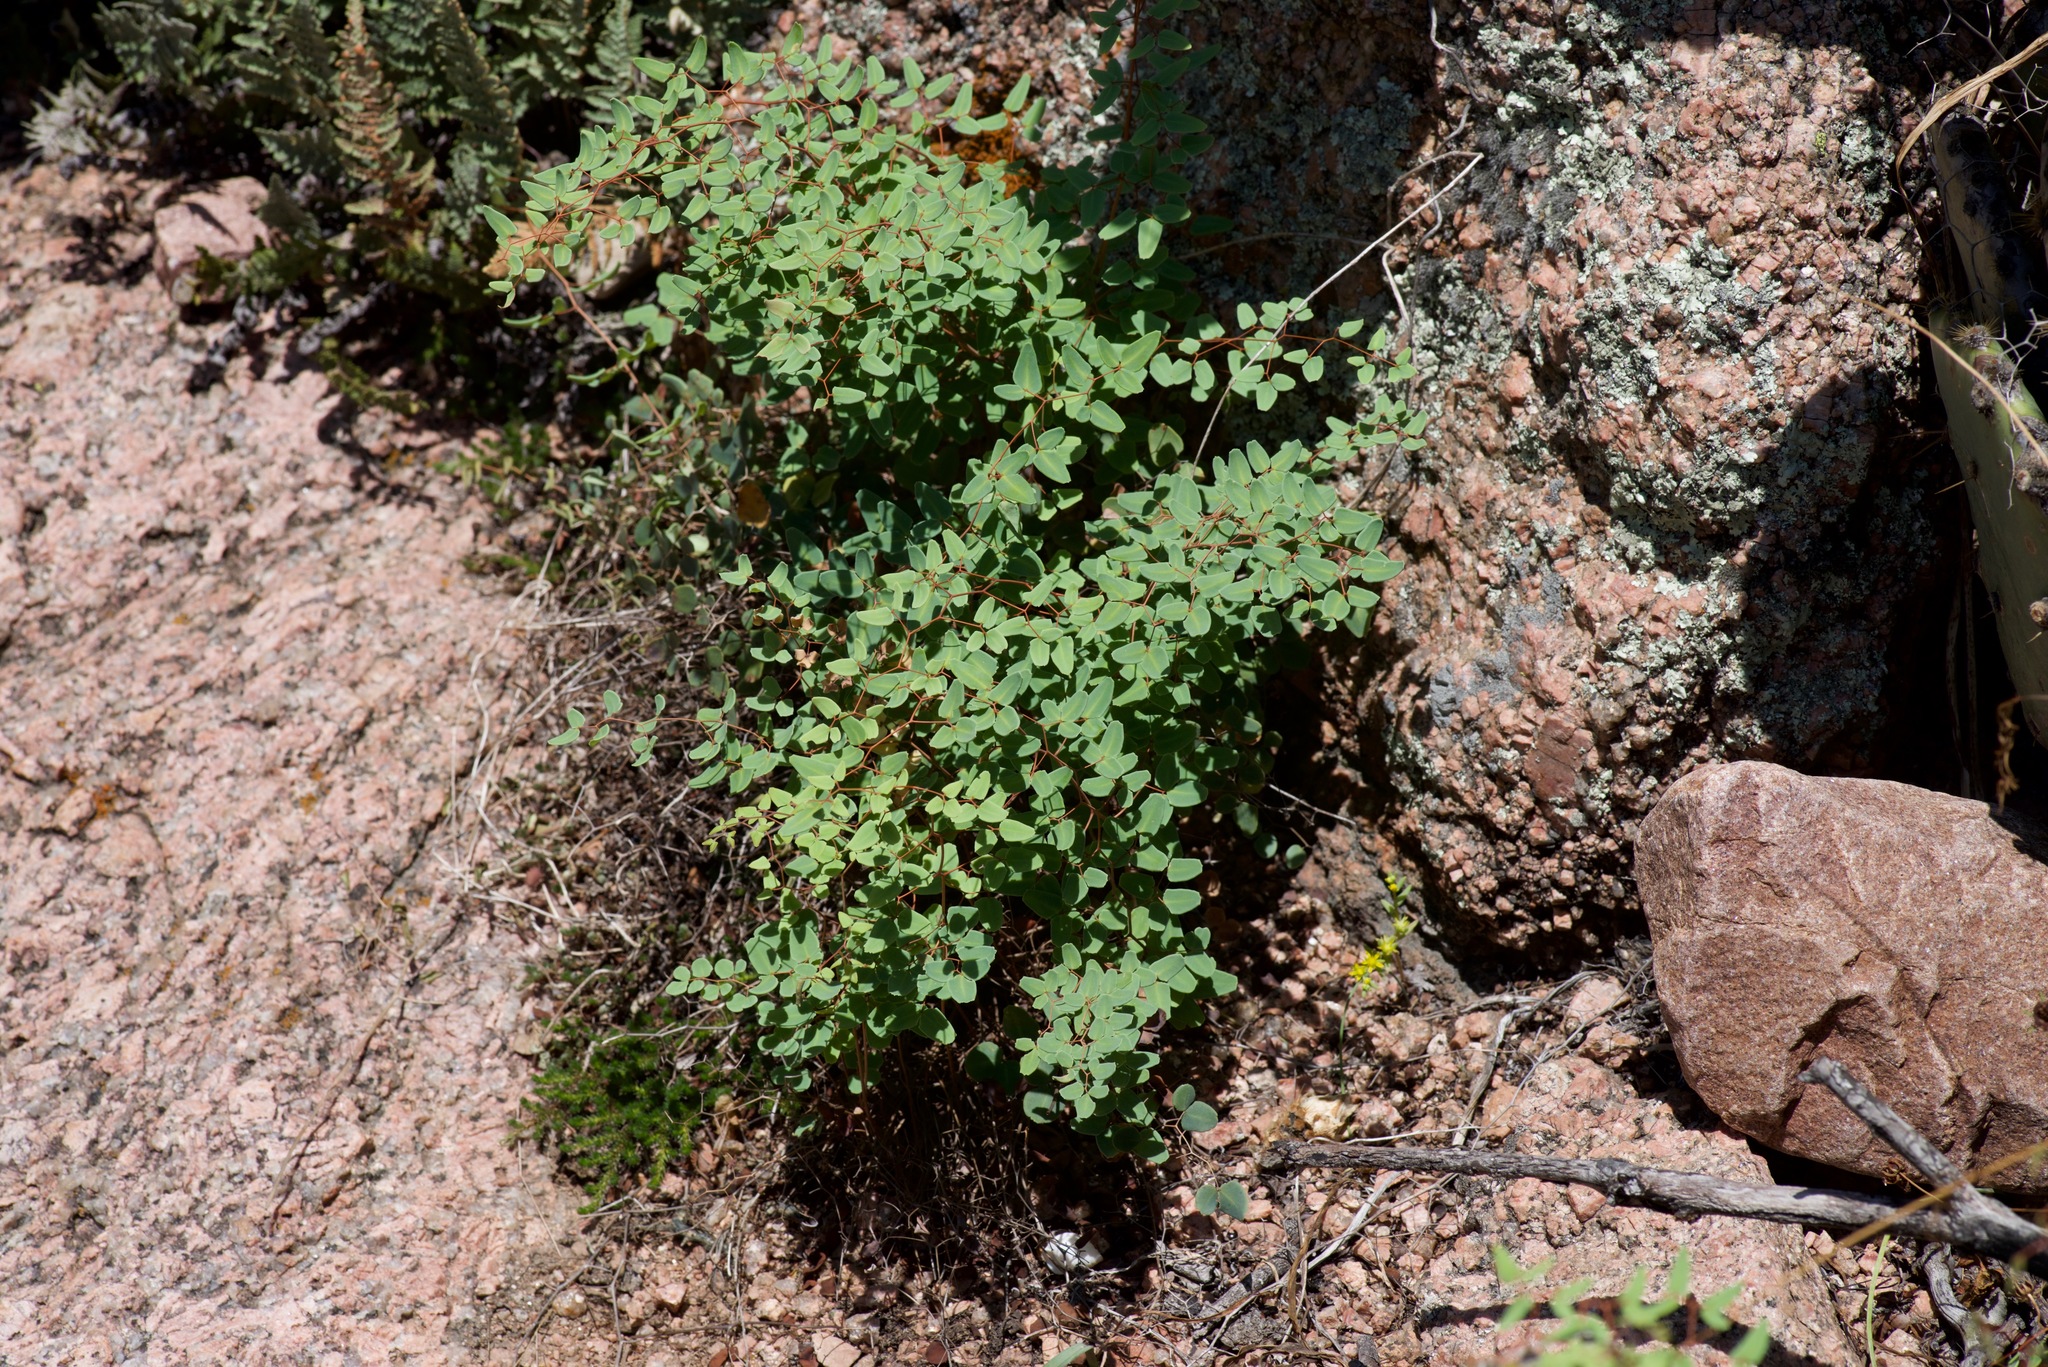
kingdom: Plantae
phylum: Tracheophyta
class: Polypodiopsida
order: Polypodiales
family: Pteridaceae
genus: Pellaea
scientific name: Pellaea ovata
